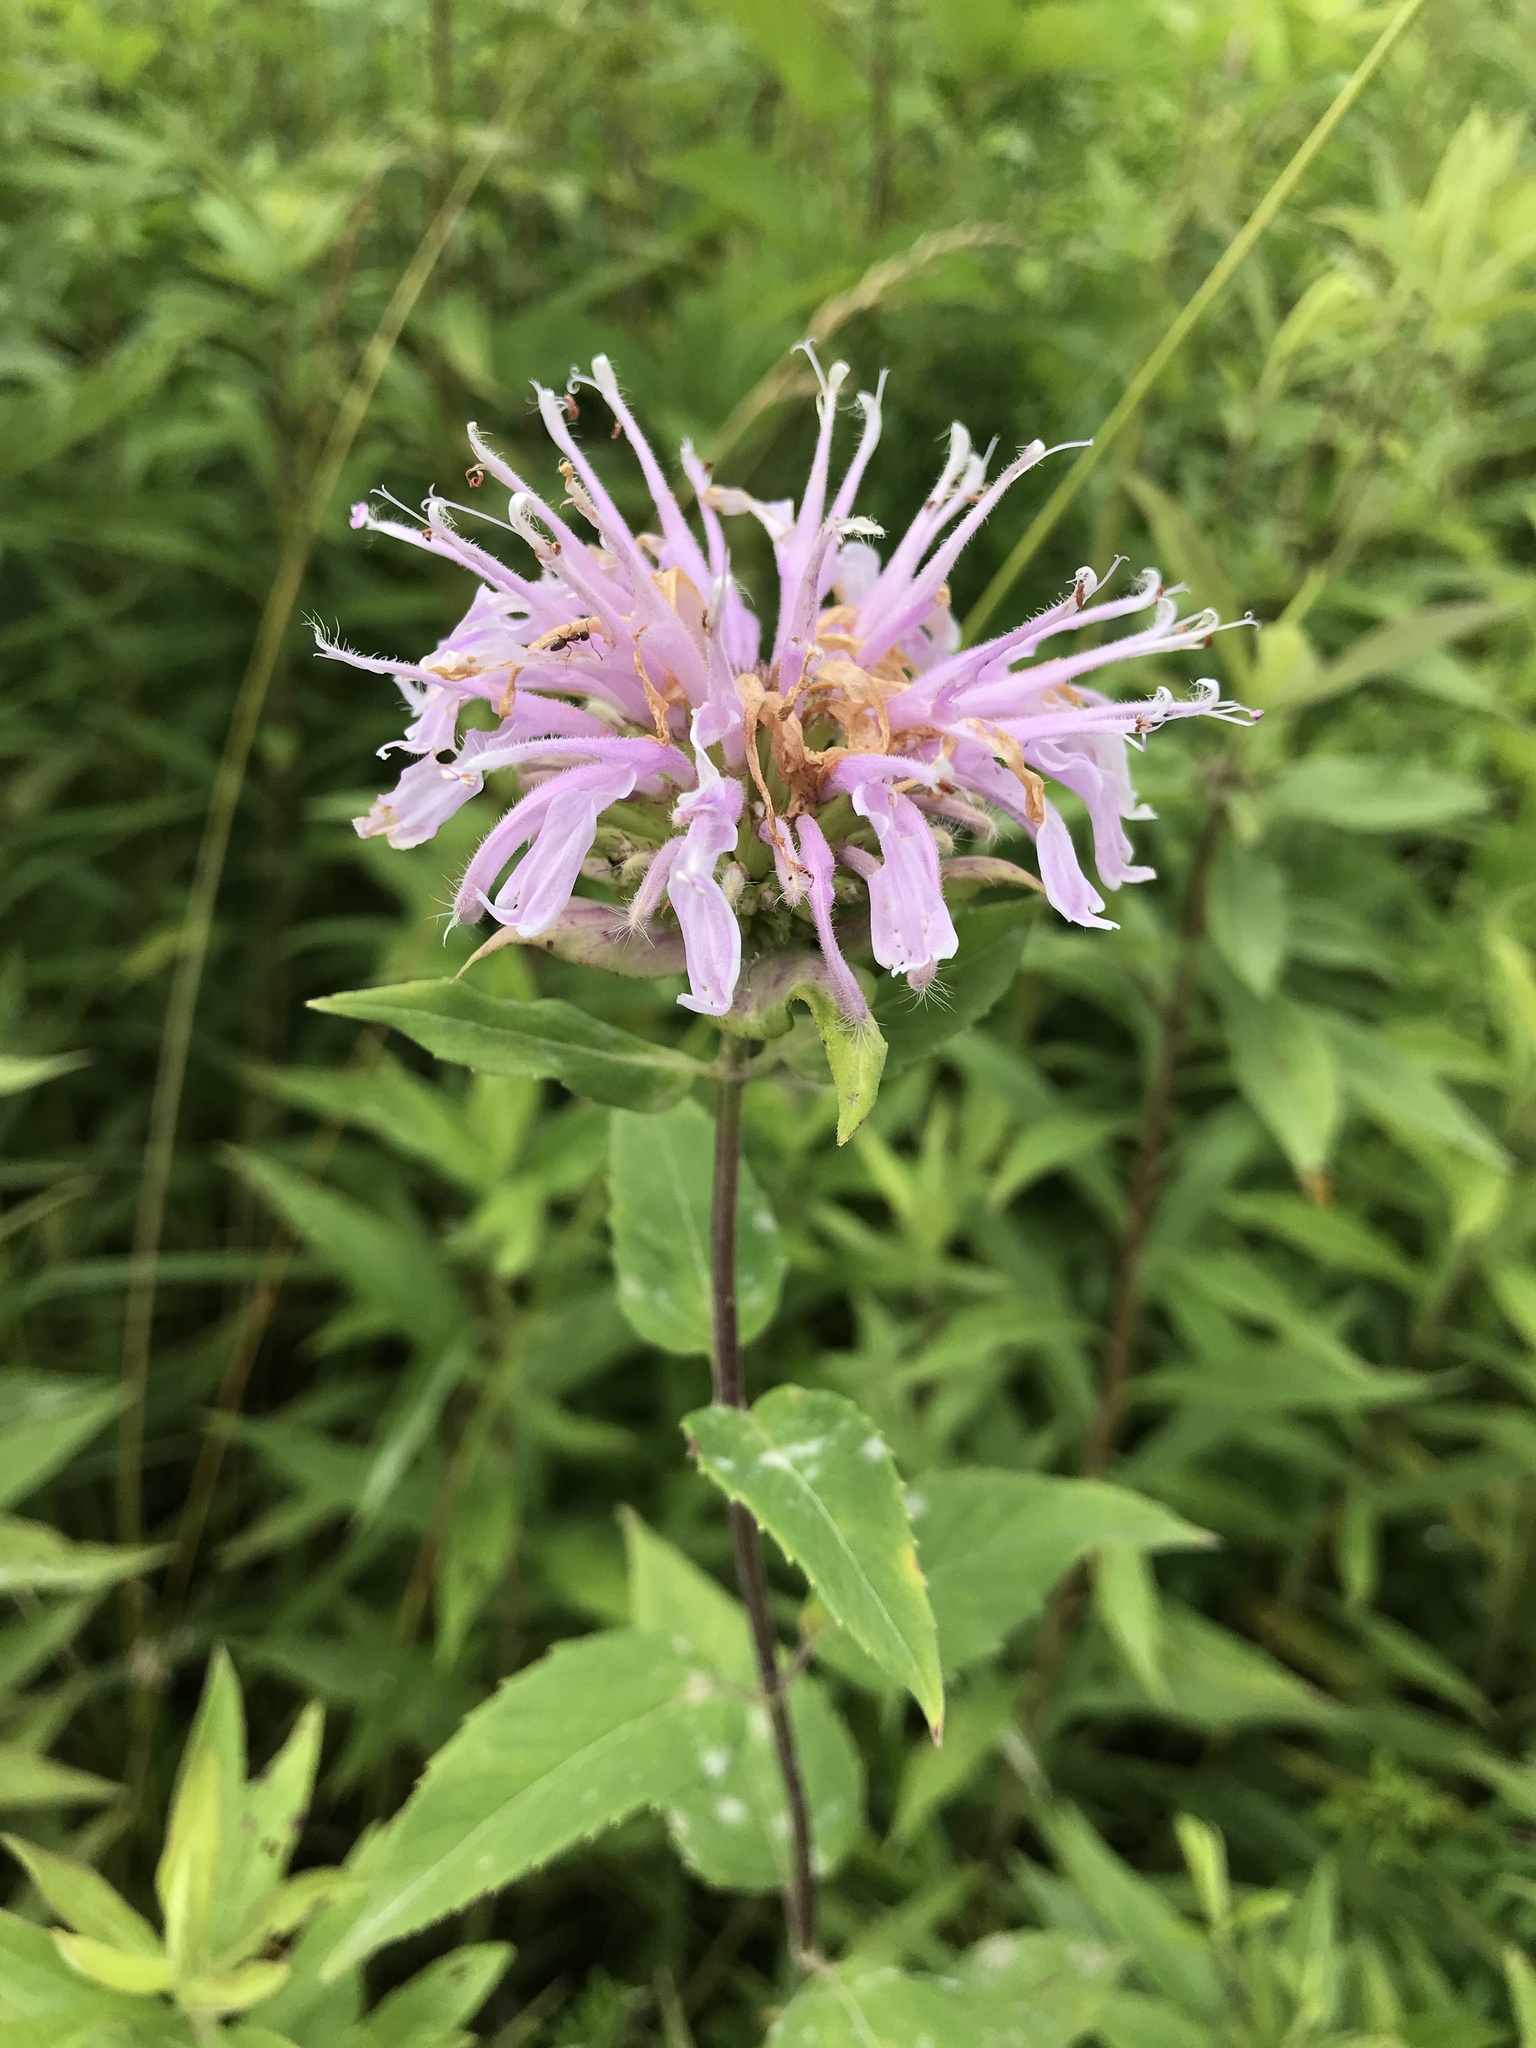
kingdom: Plantae
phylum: Tracheophyta
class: Magnoliopsida
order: Lamiales
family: Lamiaceae
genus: Monarda
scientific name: Monarda fistulosa
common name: Purple beebalm
